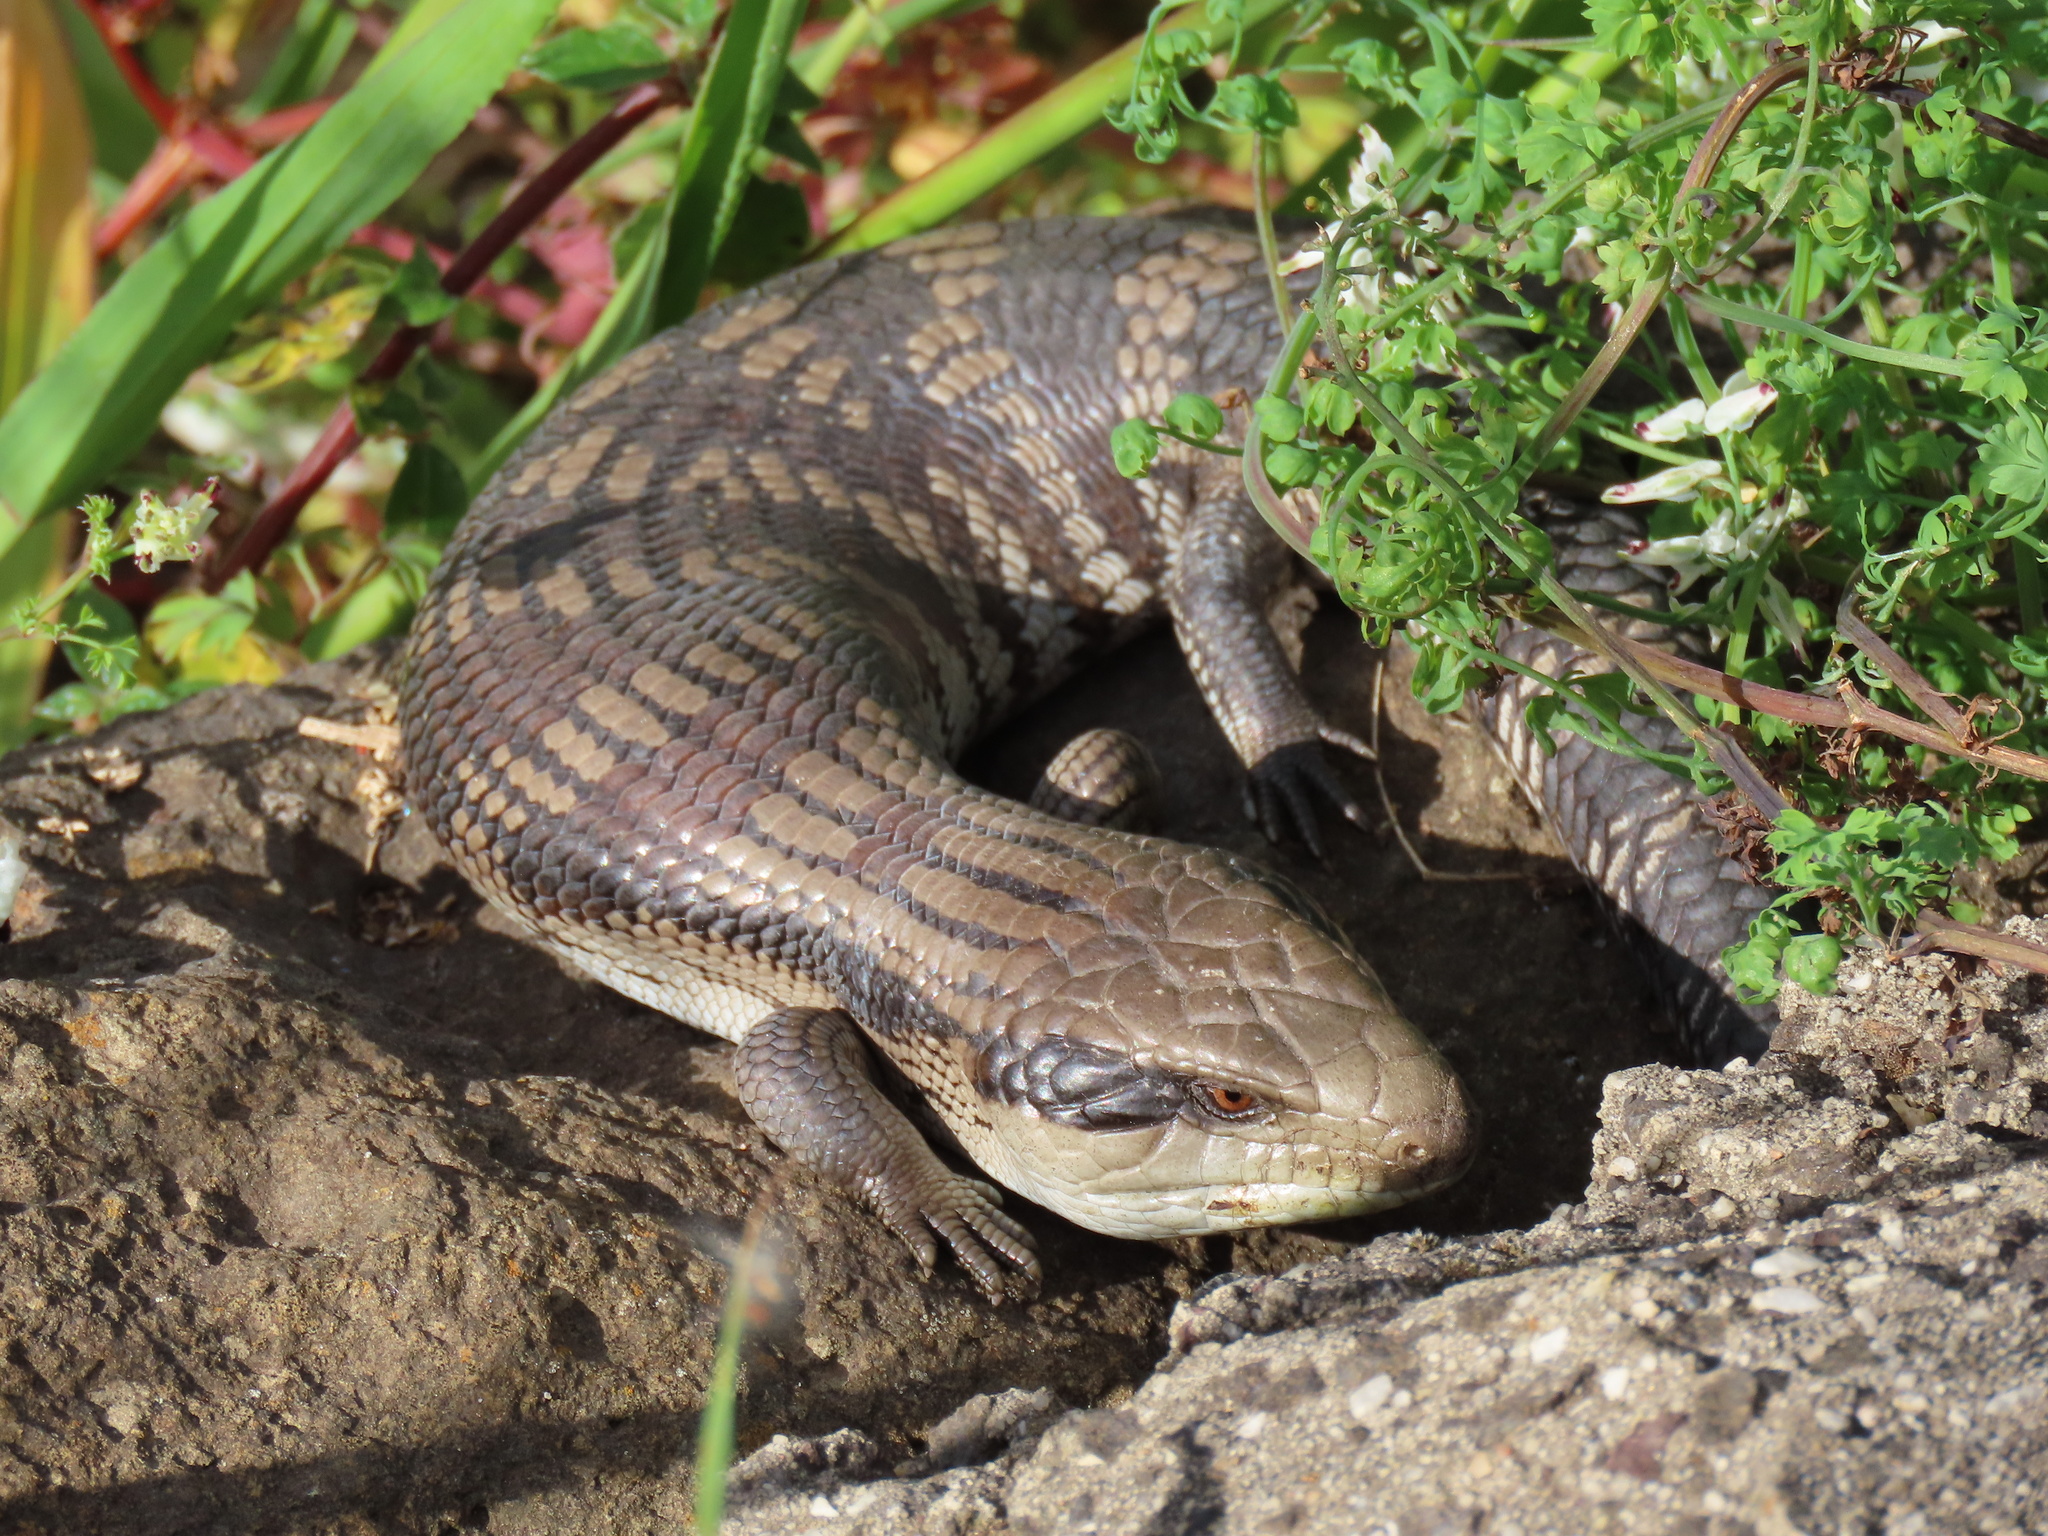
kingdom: Animalia
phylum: Chordata
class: Squamata
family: Scincidae
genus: Tiliqua
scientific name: Tiliqua scincoides
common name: Common bluetongue
